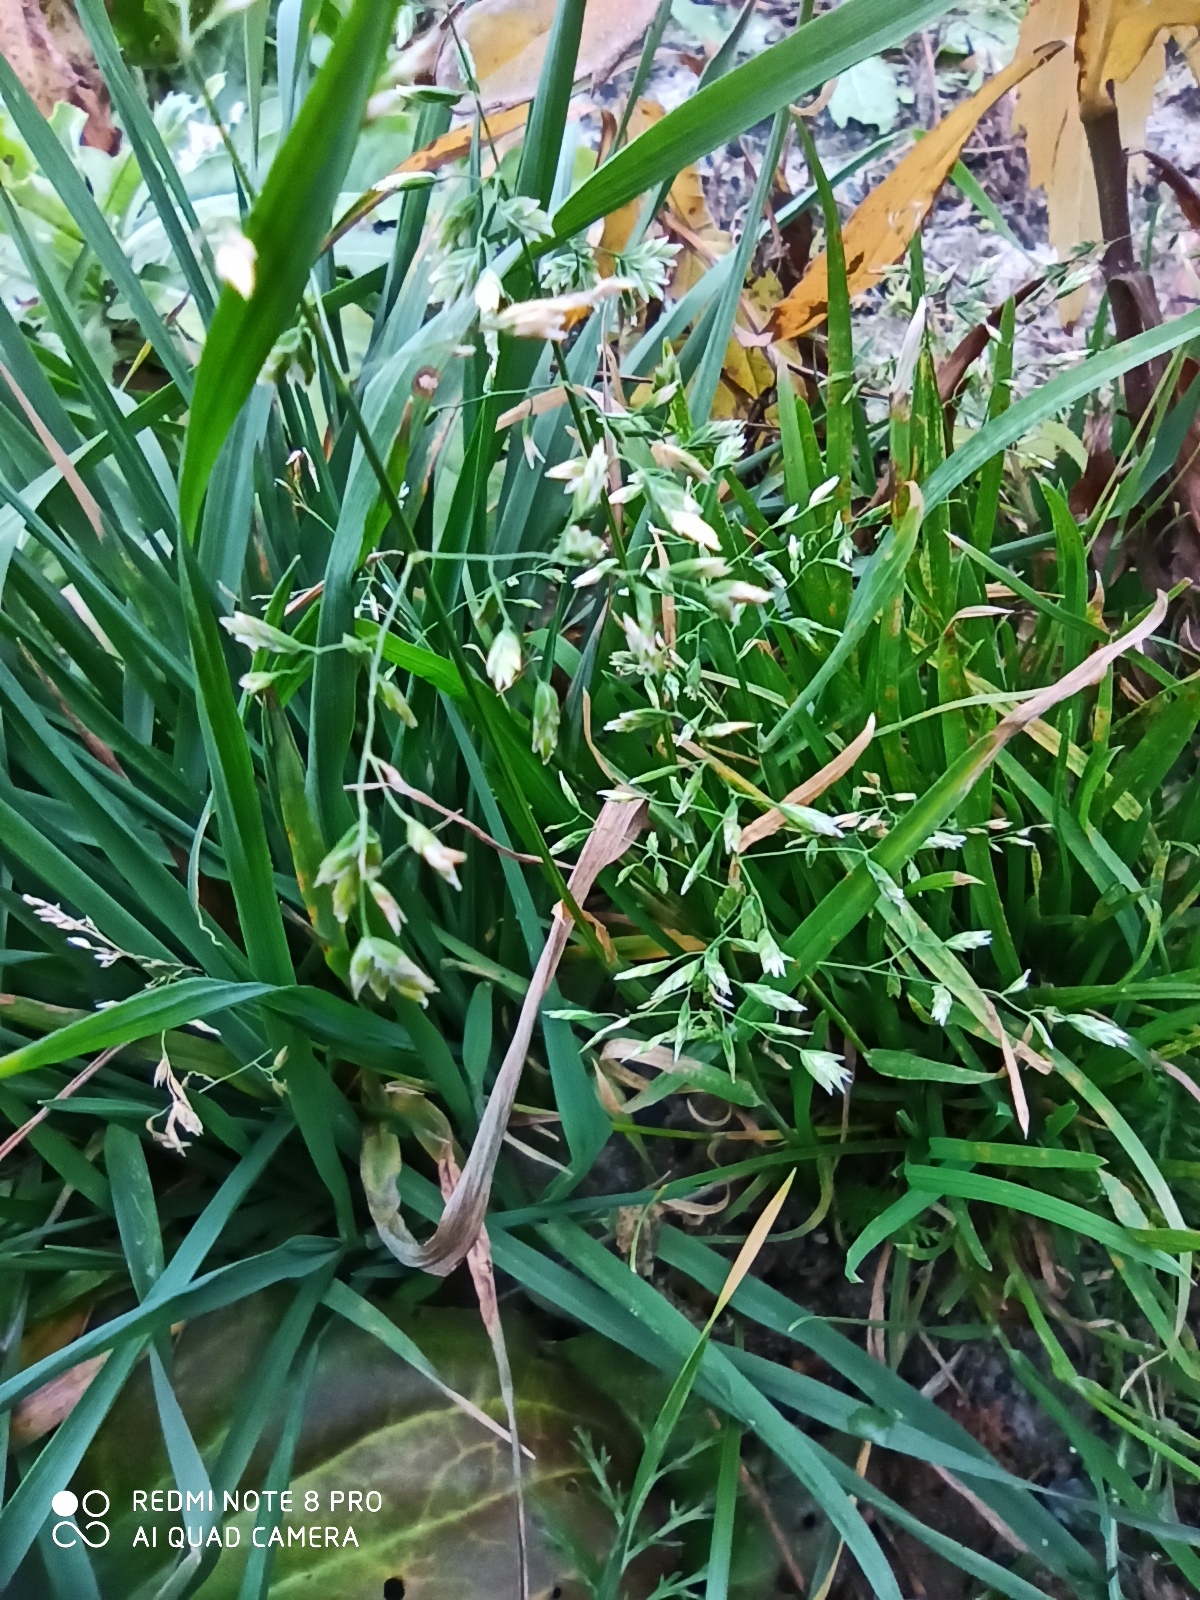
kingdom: Plantae
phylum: Tracheophyta
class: Liliopsida
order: Poales
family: Poaceae
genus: Poa
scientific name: Poa annua
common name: Annual bluegrass
